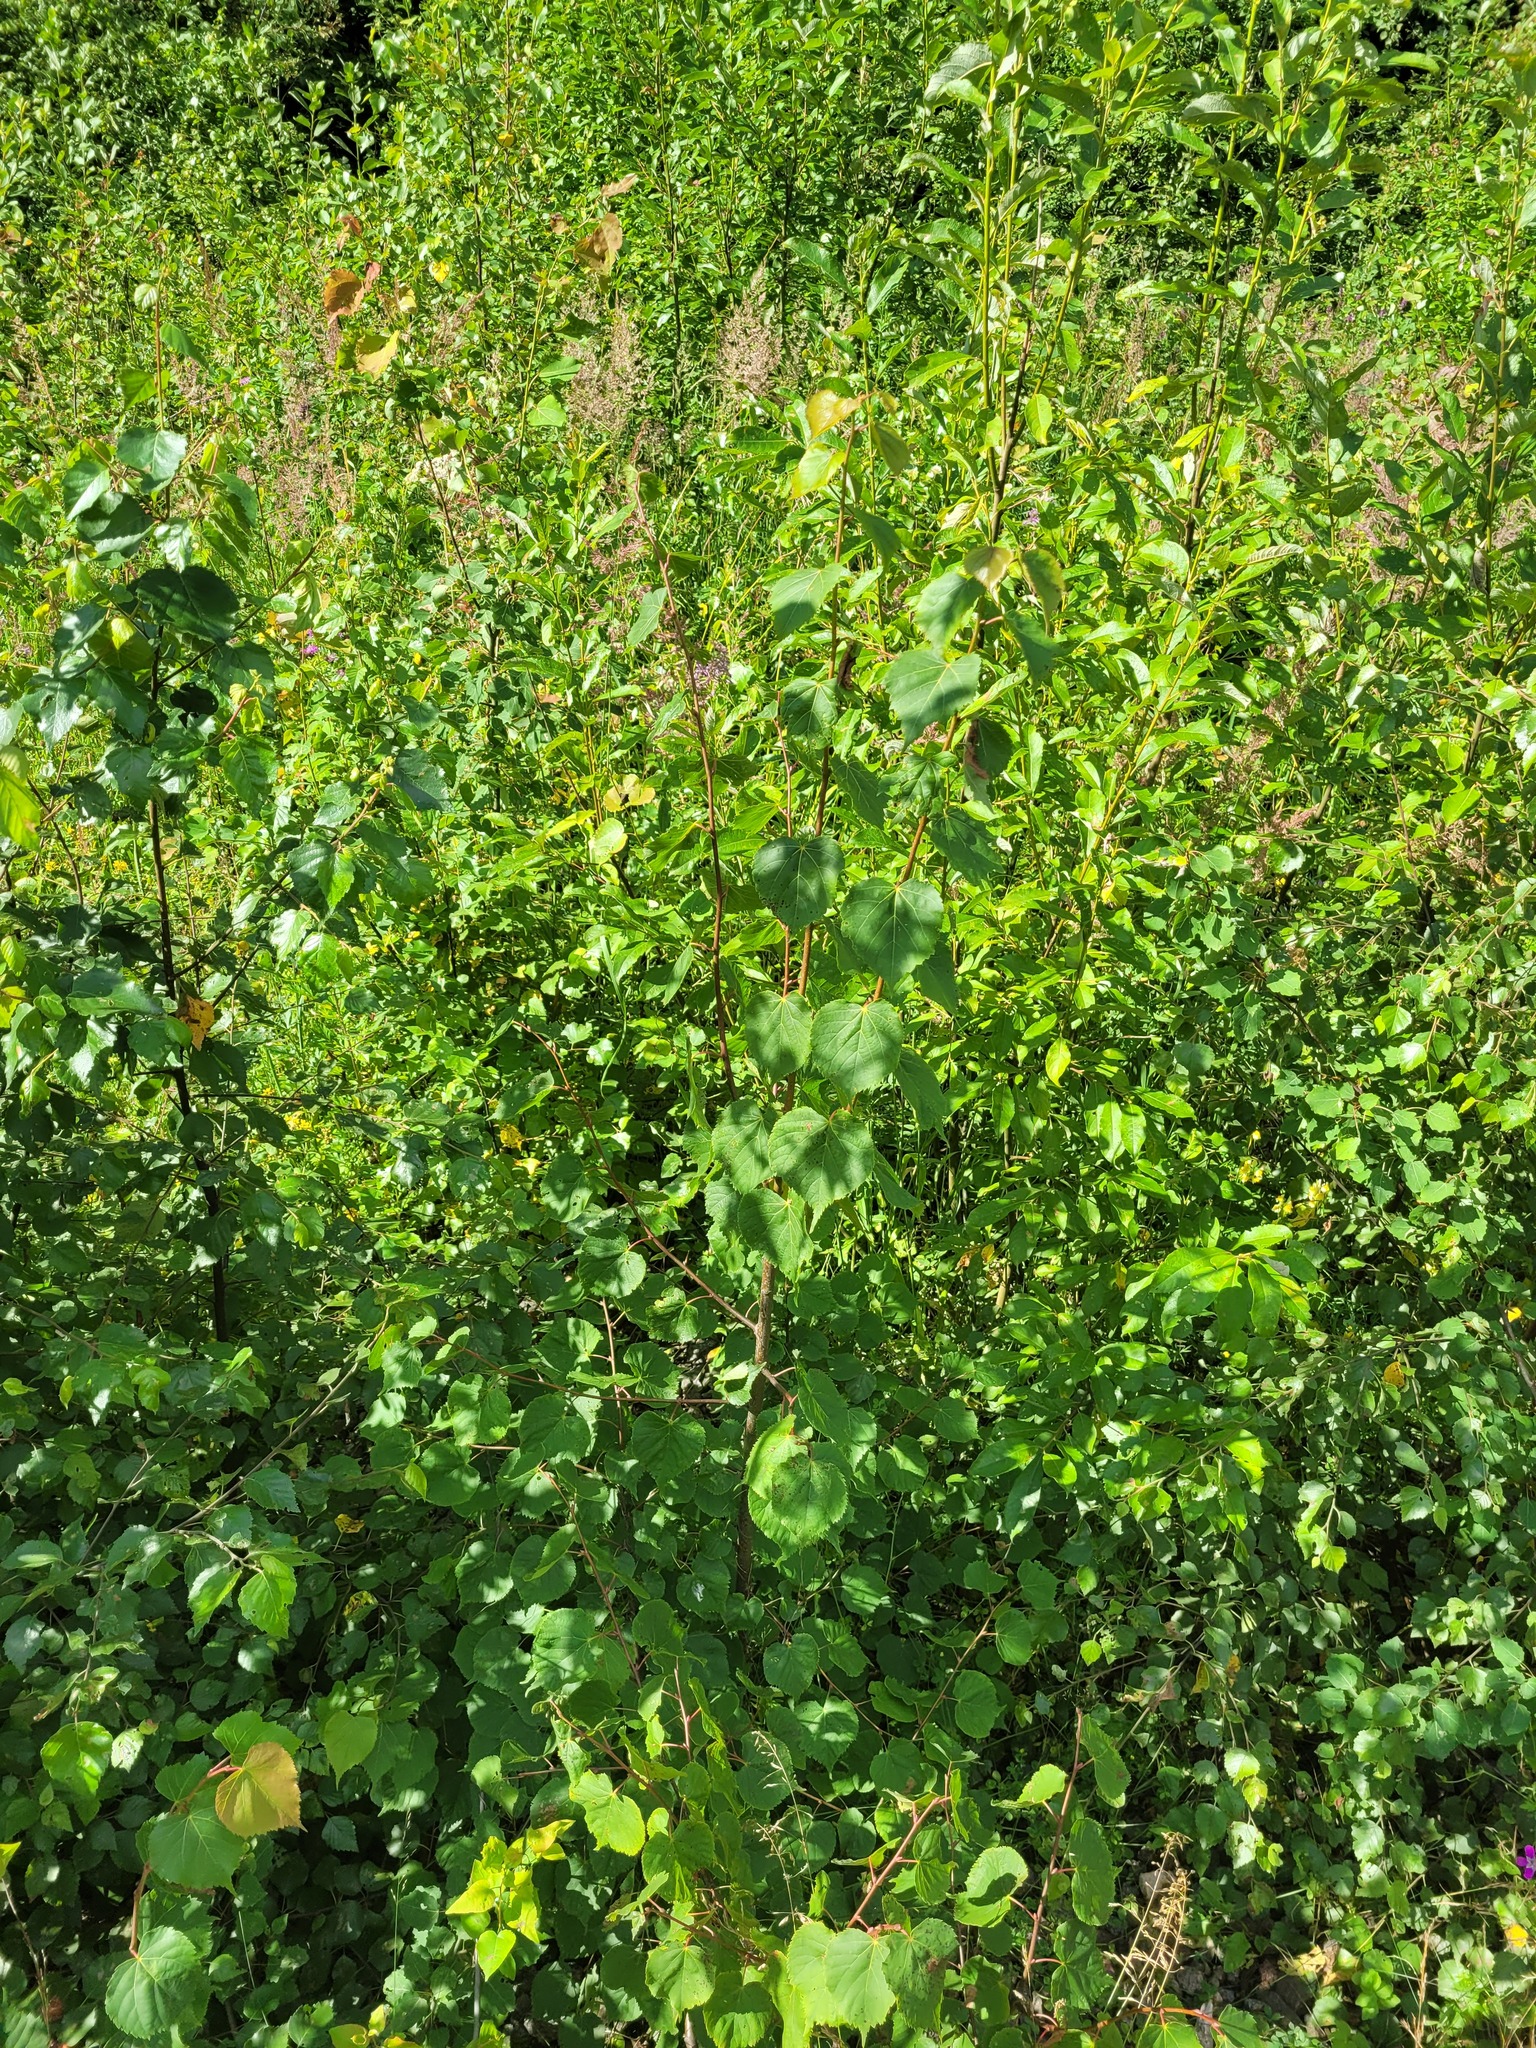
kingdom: Plantae
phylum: Tracheophyta
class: Magnoliopsida
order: Malvales
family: Malvaceae
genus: Tilia
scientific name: Tilia cordata
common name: Small-leaved lime
